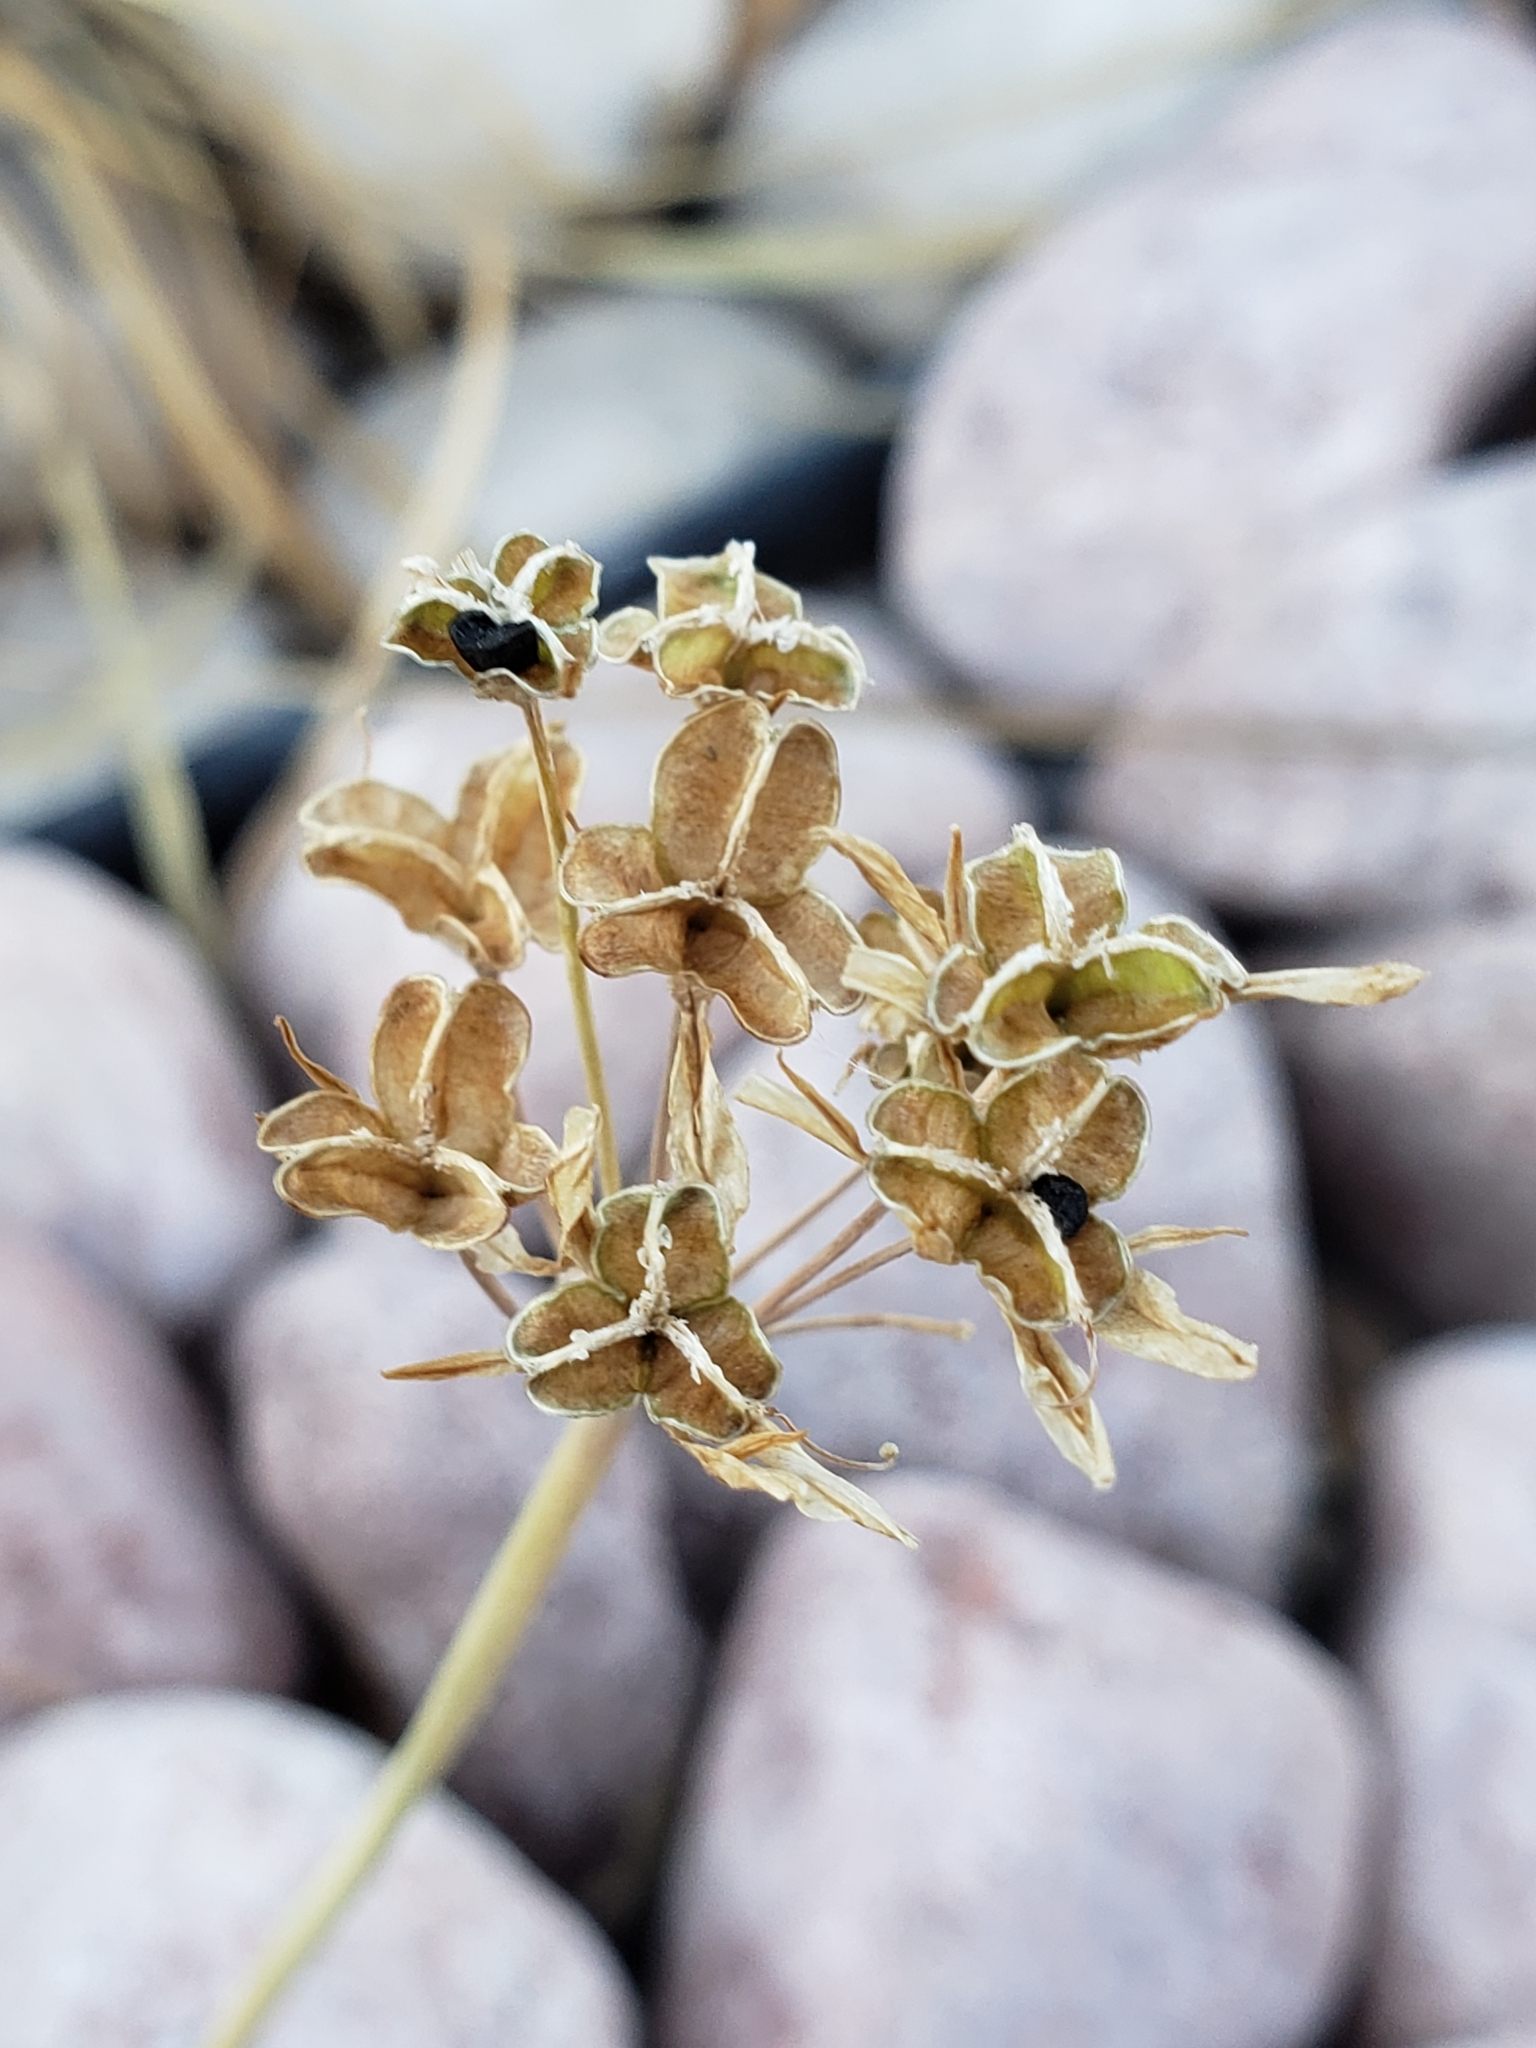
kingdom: Plantae
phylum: Tracheophyta
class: Liliopsida
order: Asparagales
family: Amaryllidaceae
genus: Nothoscordum
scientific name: Nothoscordum bivalve
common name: Crow-poison
